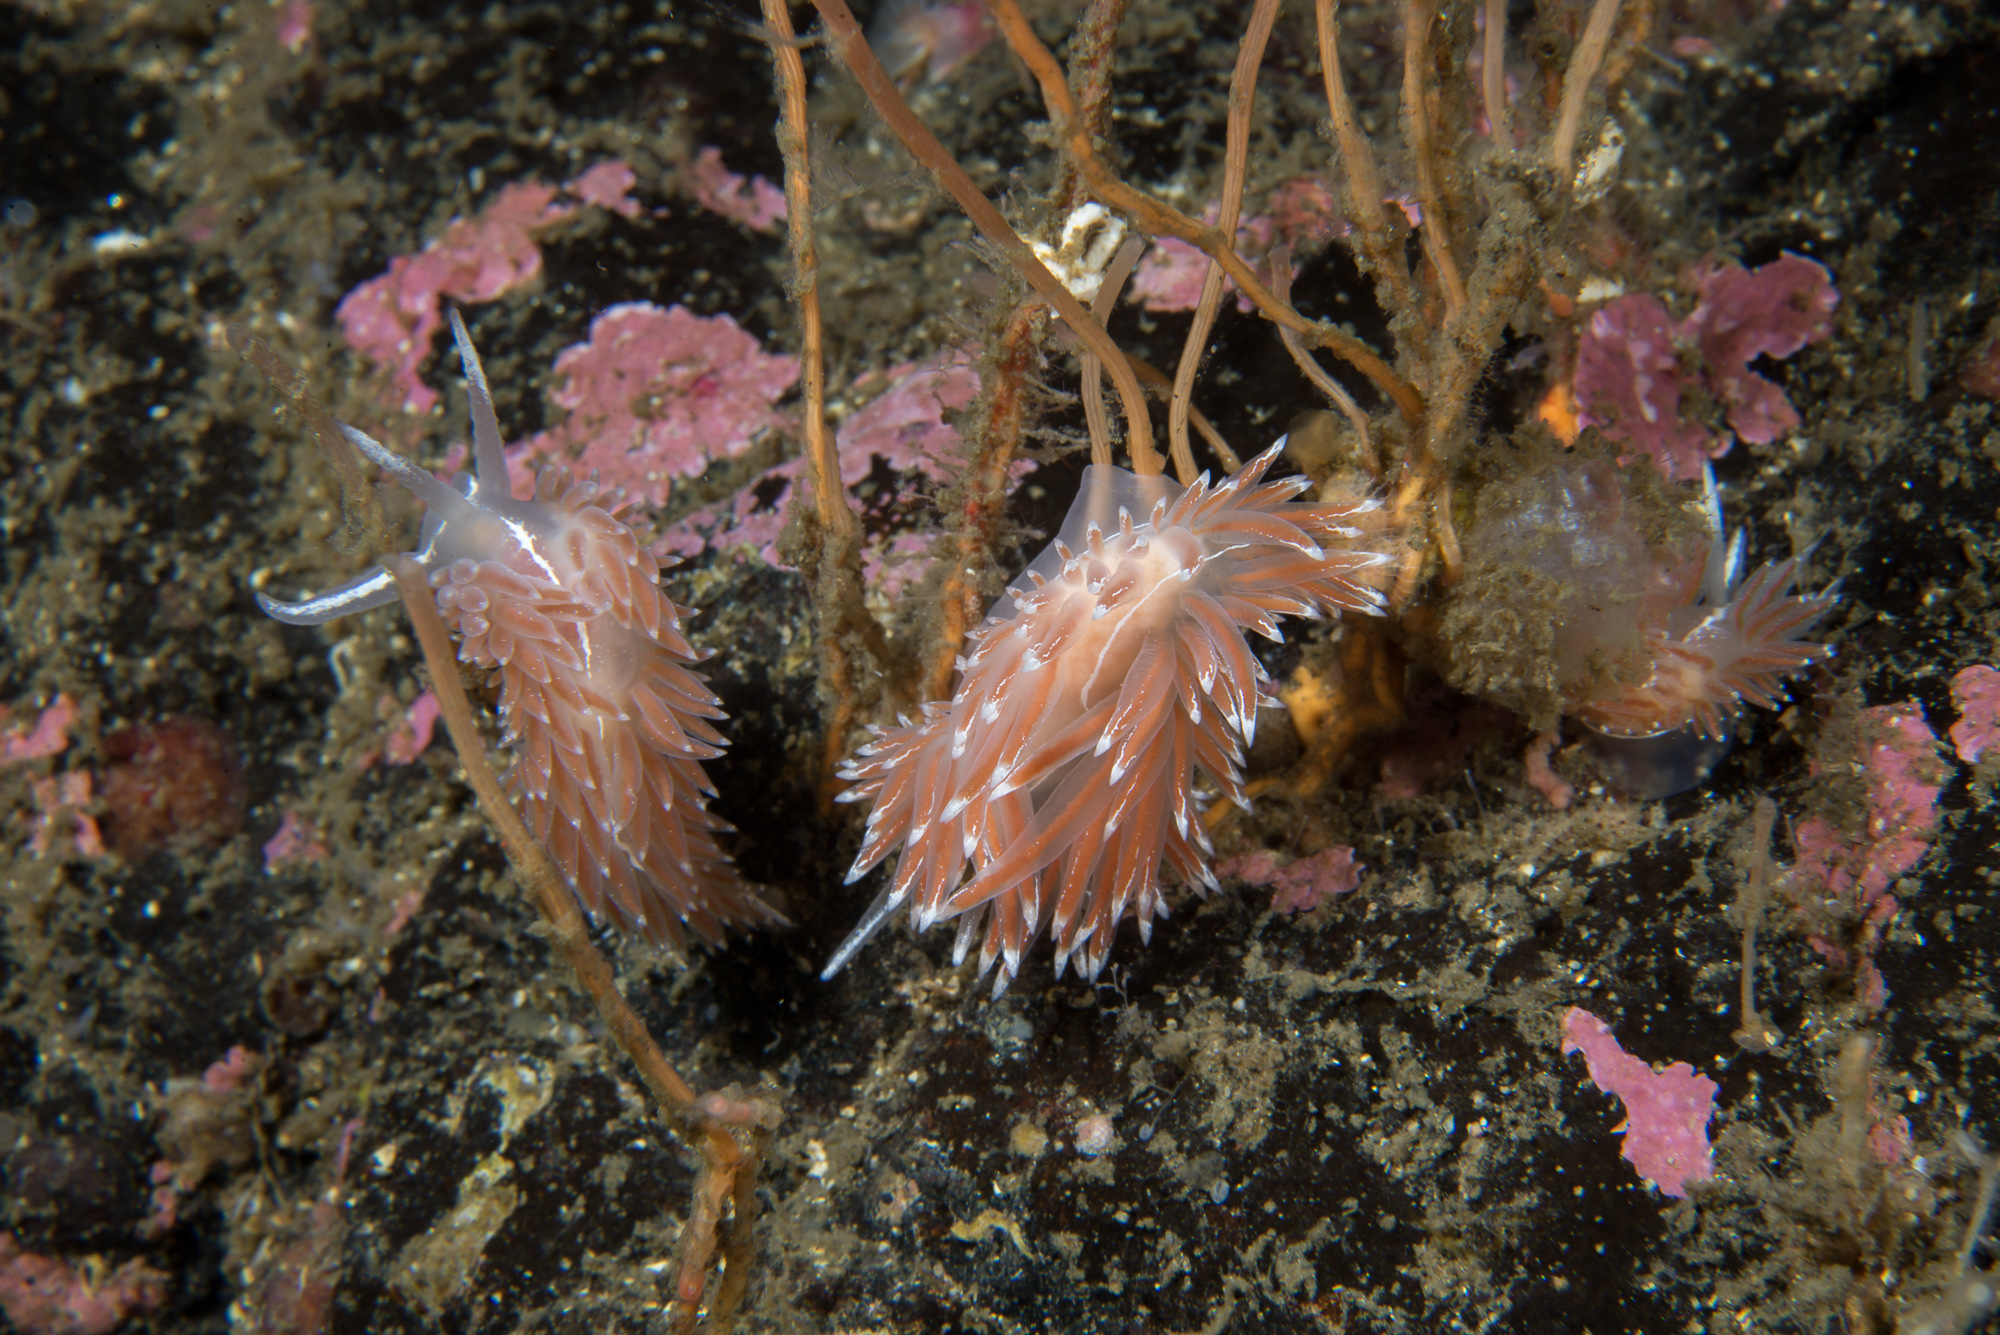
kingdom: Animalia
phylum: Mollusca
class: Gastropoda
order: Nudibranchia
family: Coryphellidae
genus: Coryphella
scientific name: Coryphella lineata
